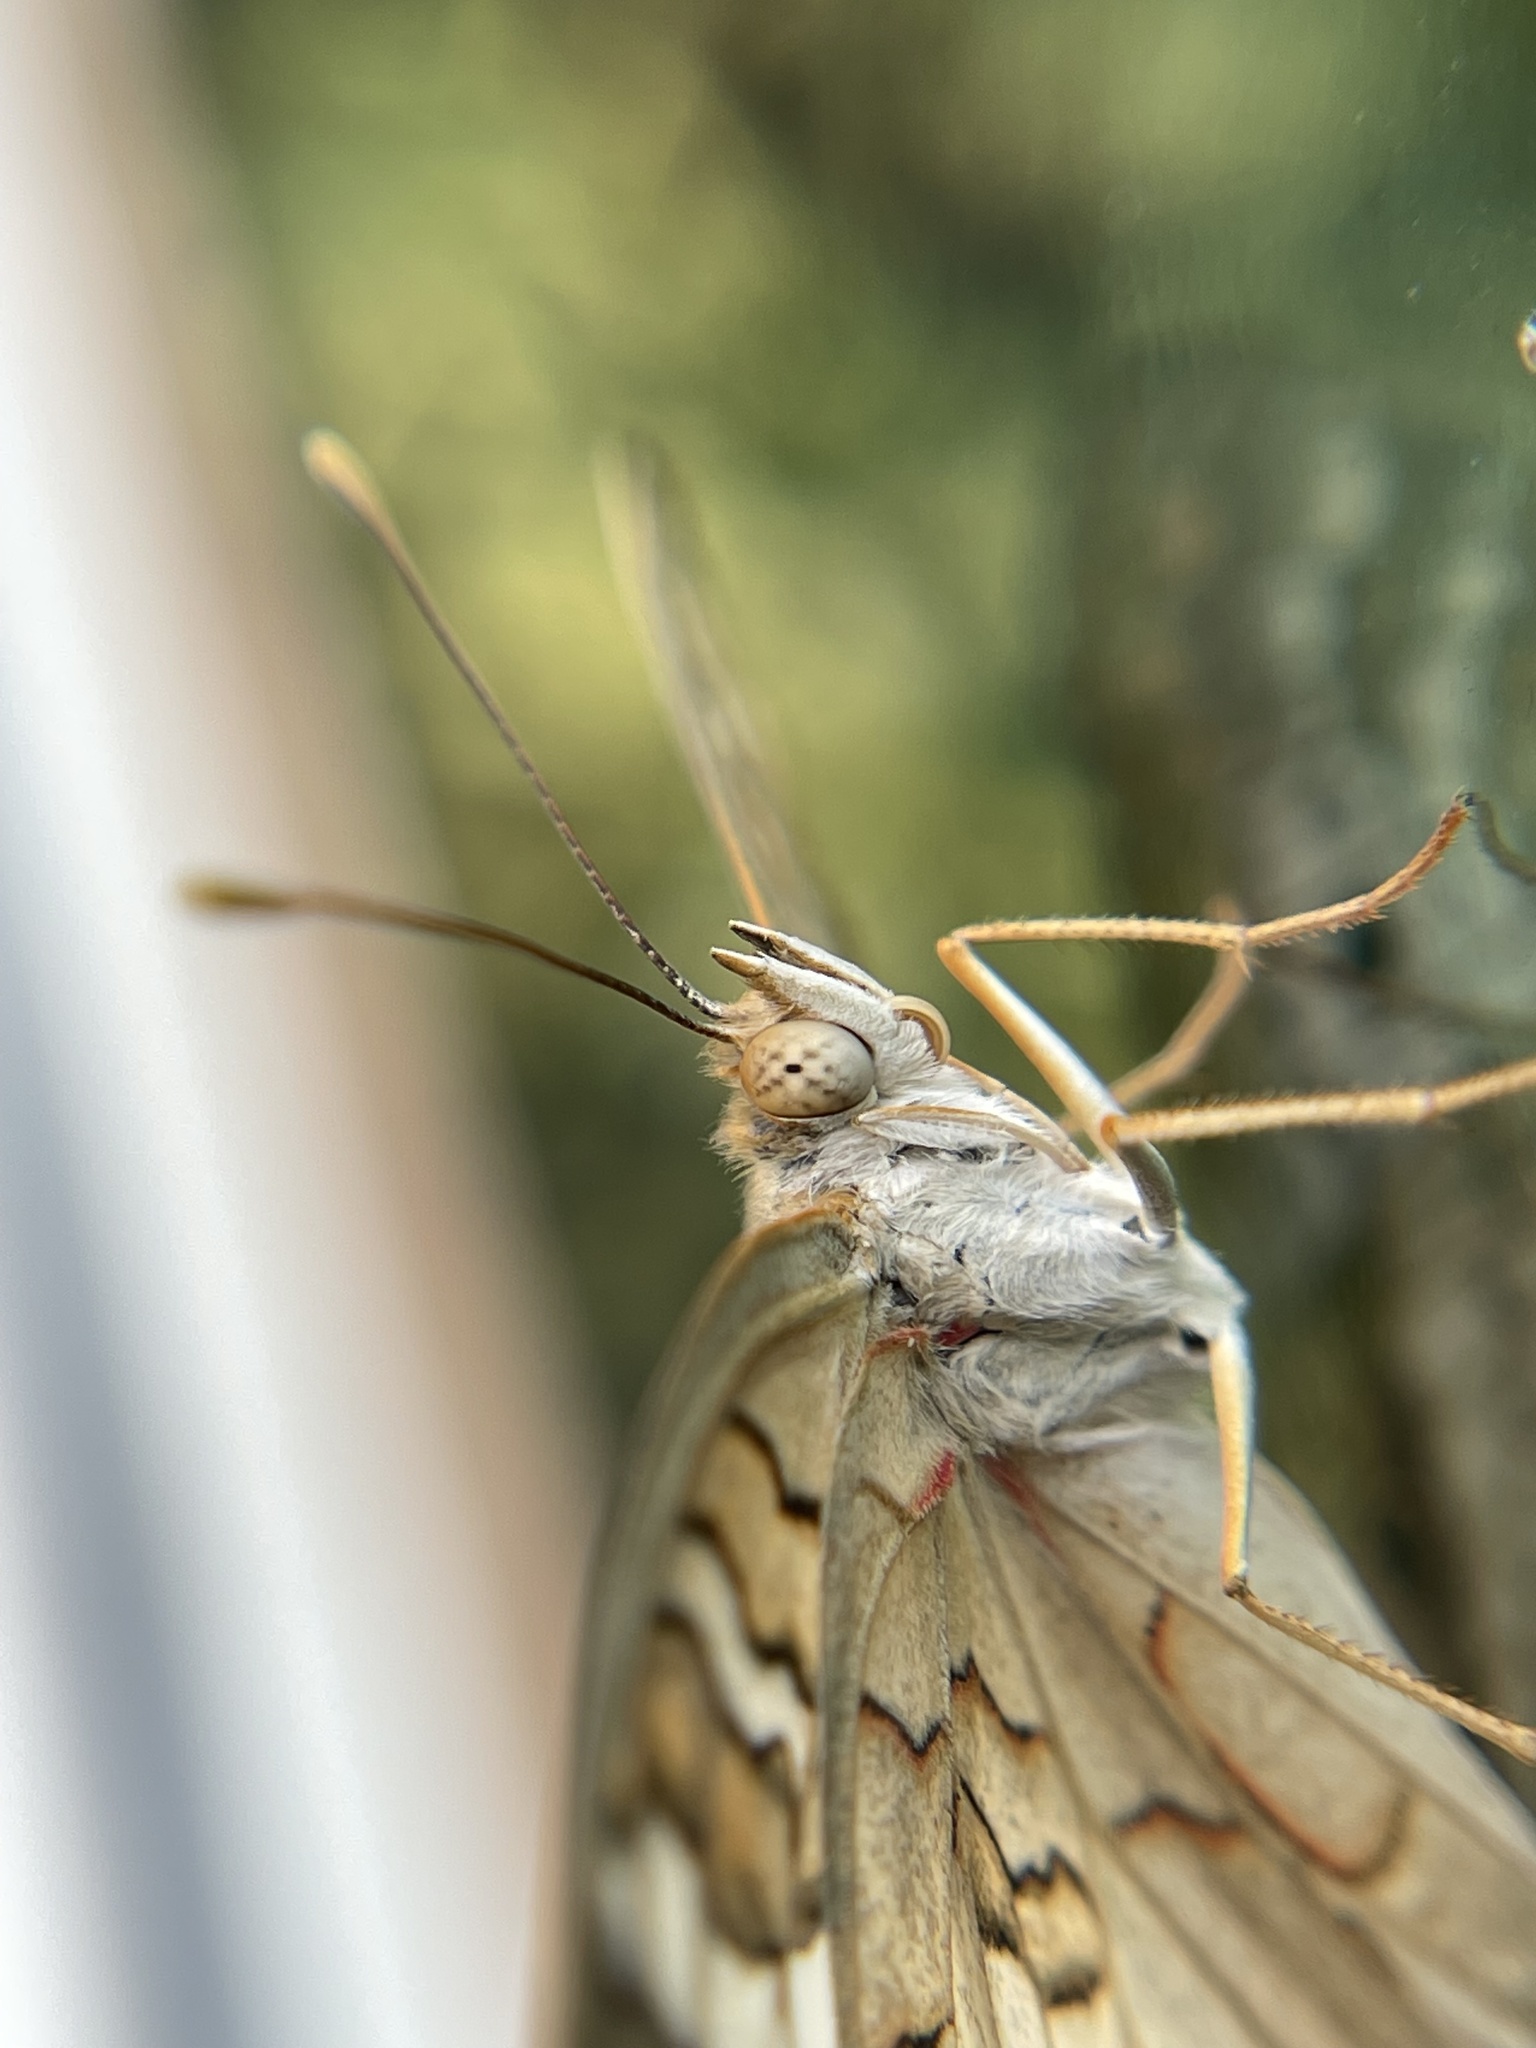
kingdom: Animalia
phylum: Arthropoda
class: Insecta
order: Lepidoptera
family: Nymphalidae
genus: Anartia
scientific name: Anartia jatrophae
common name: White peacock
